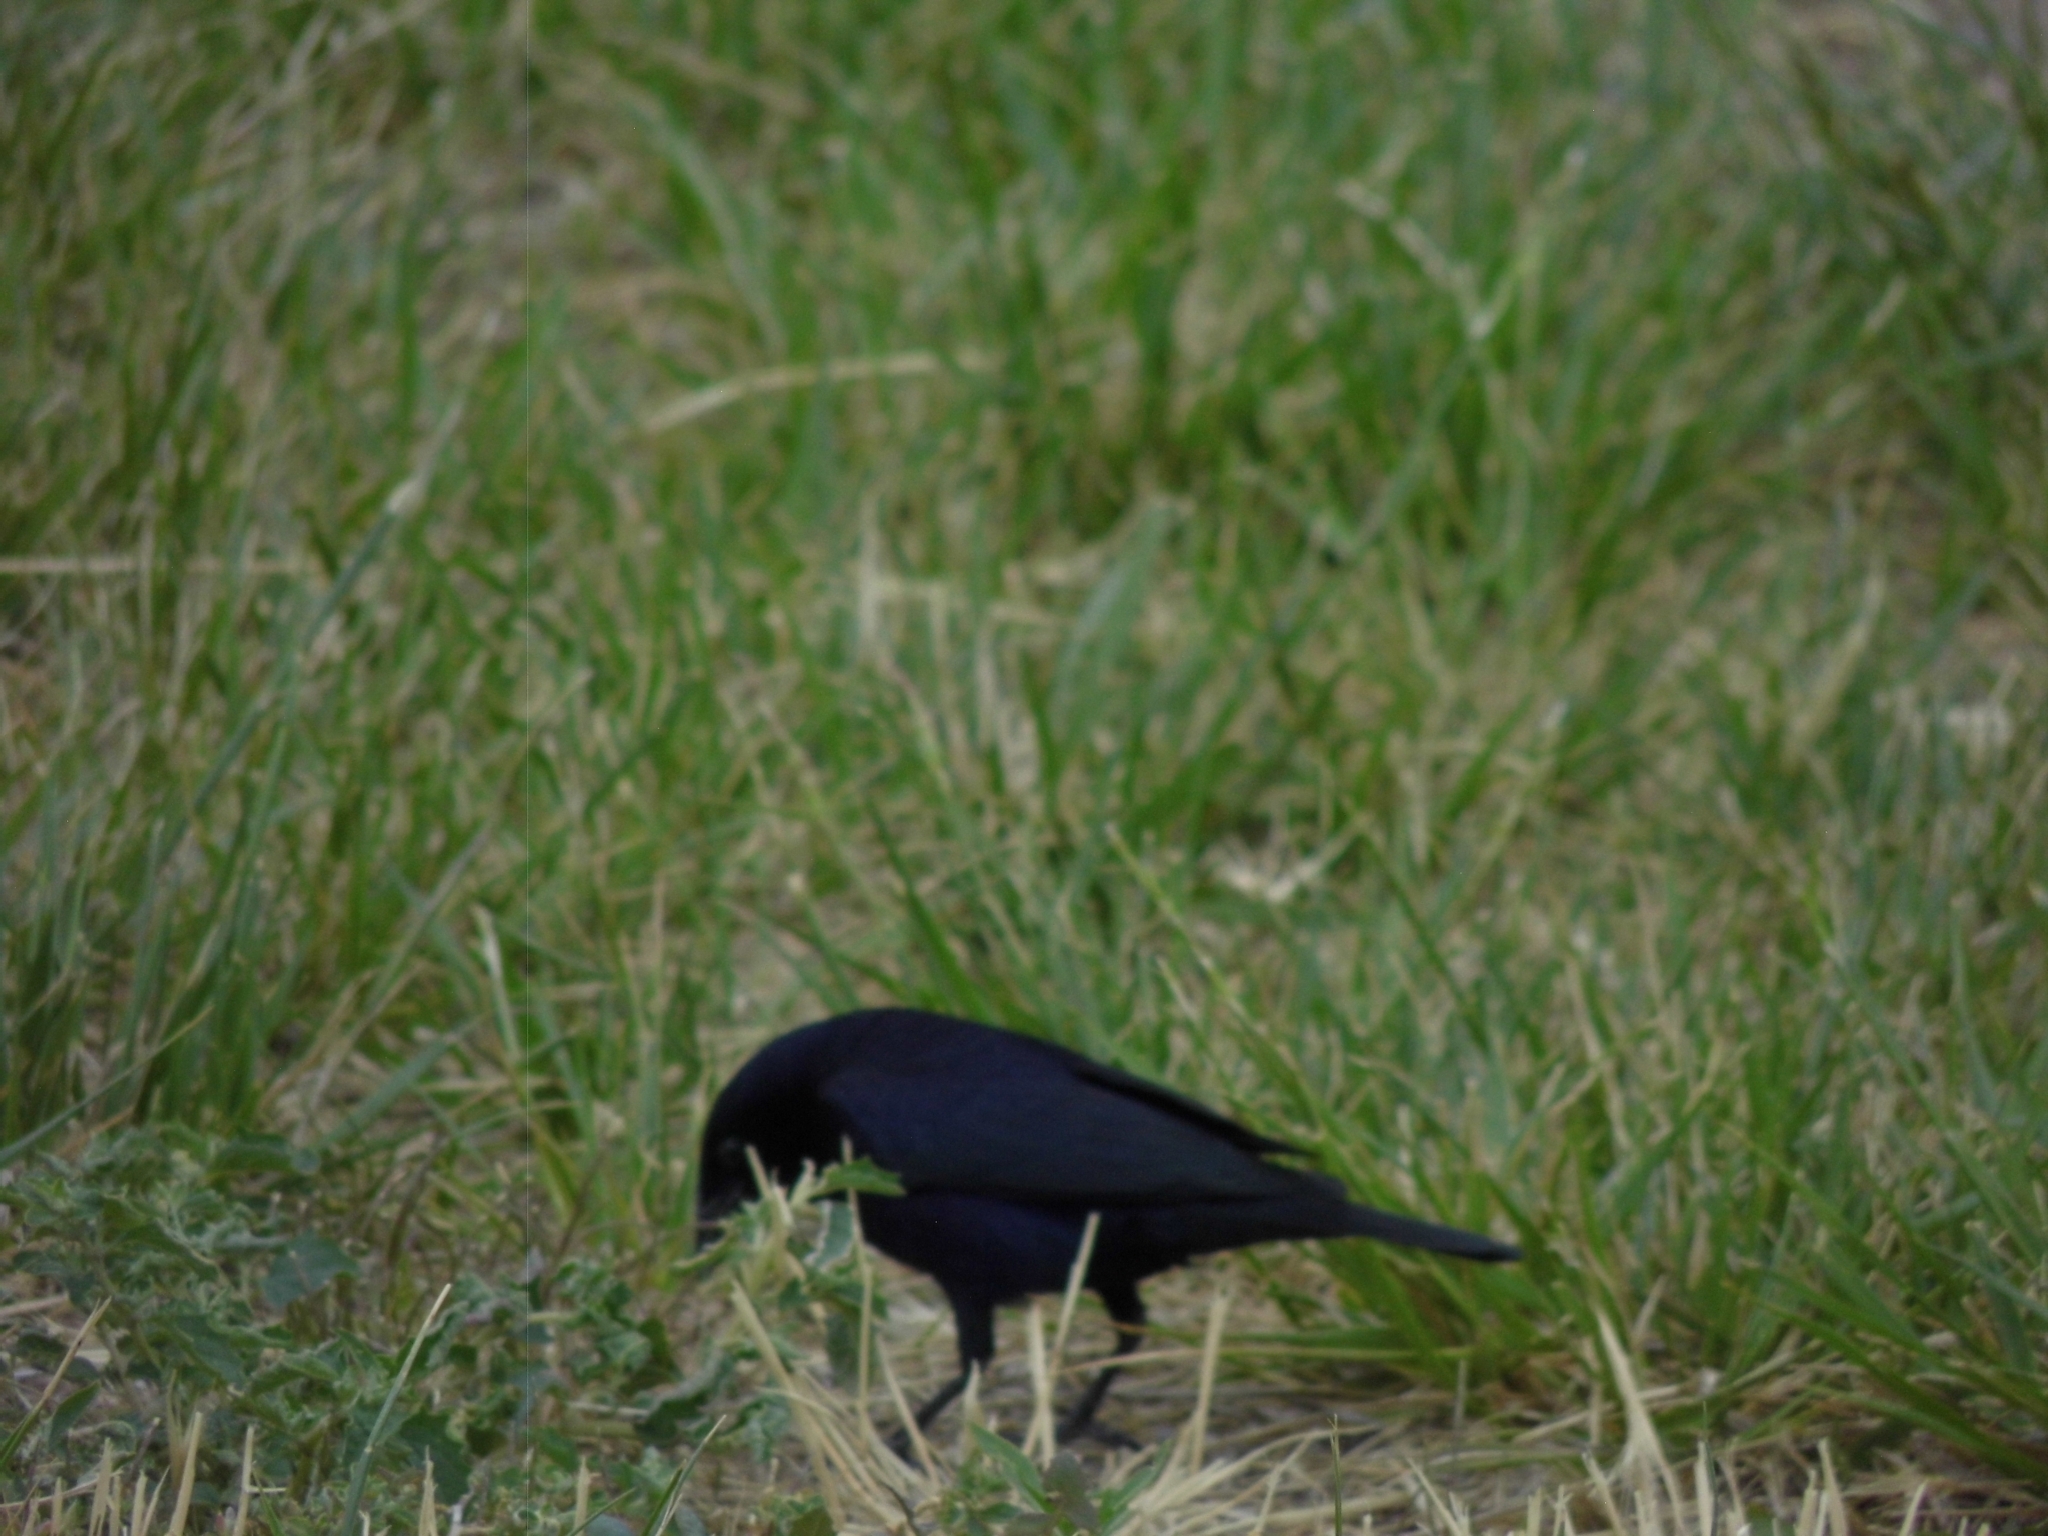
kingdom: Animalia
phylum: Chordata
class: Aves
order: Passeriformes
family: Icteridae
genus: Molothrus
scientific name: Molothrus bonariensis
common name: Shiny cowbird
